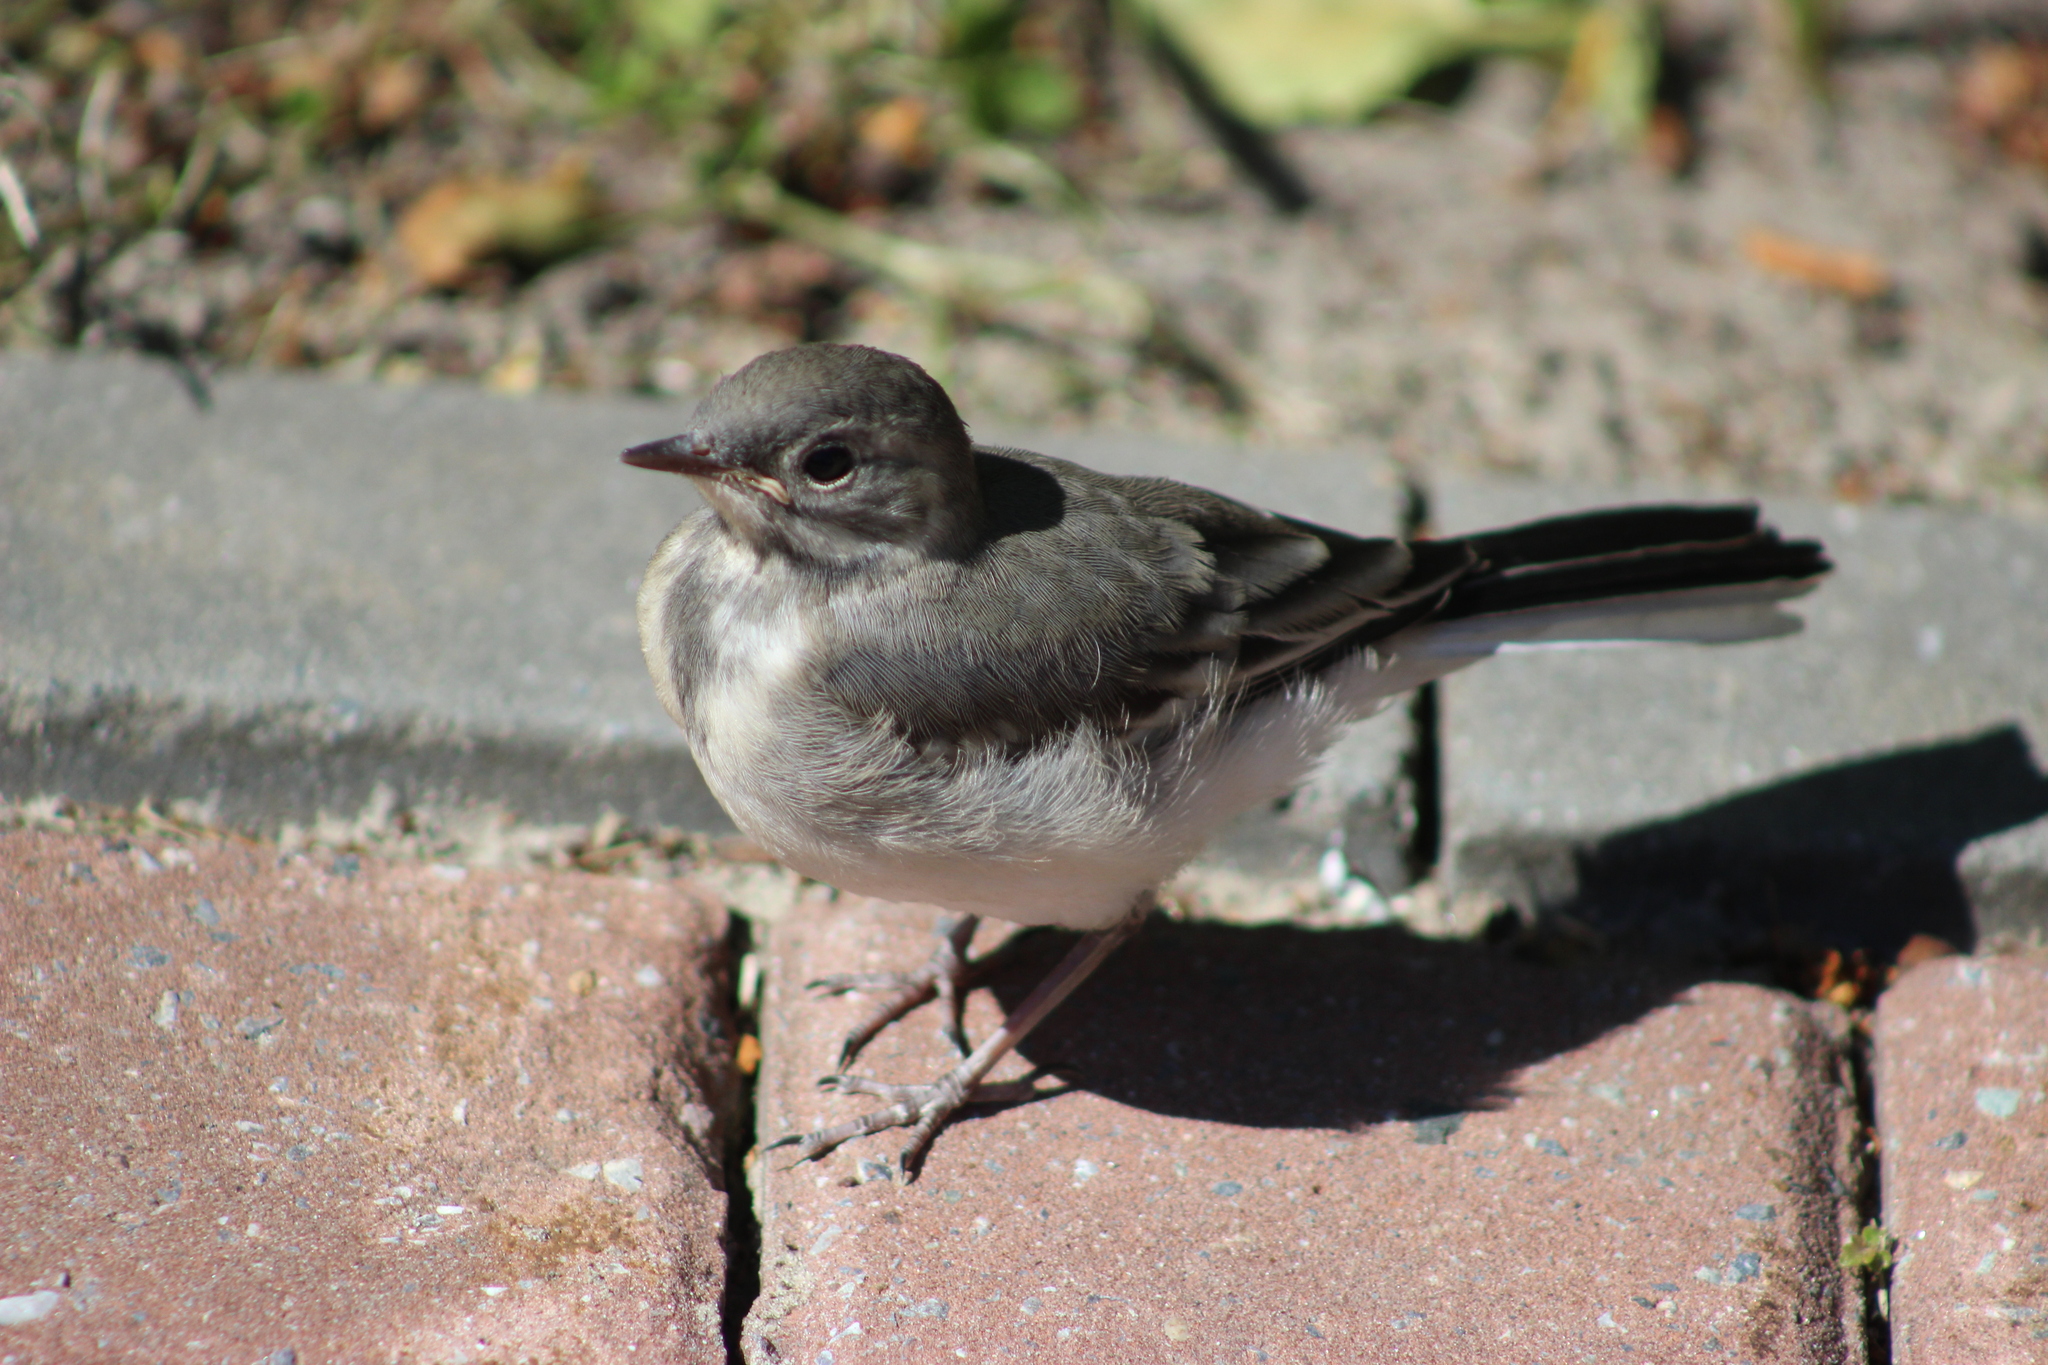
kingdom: Animalia
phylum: Chordata
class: Aves
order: Passeriformes
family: Motacillidae
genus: Motacilla
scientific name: Motacilla alba
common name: White wagtail
